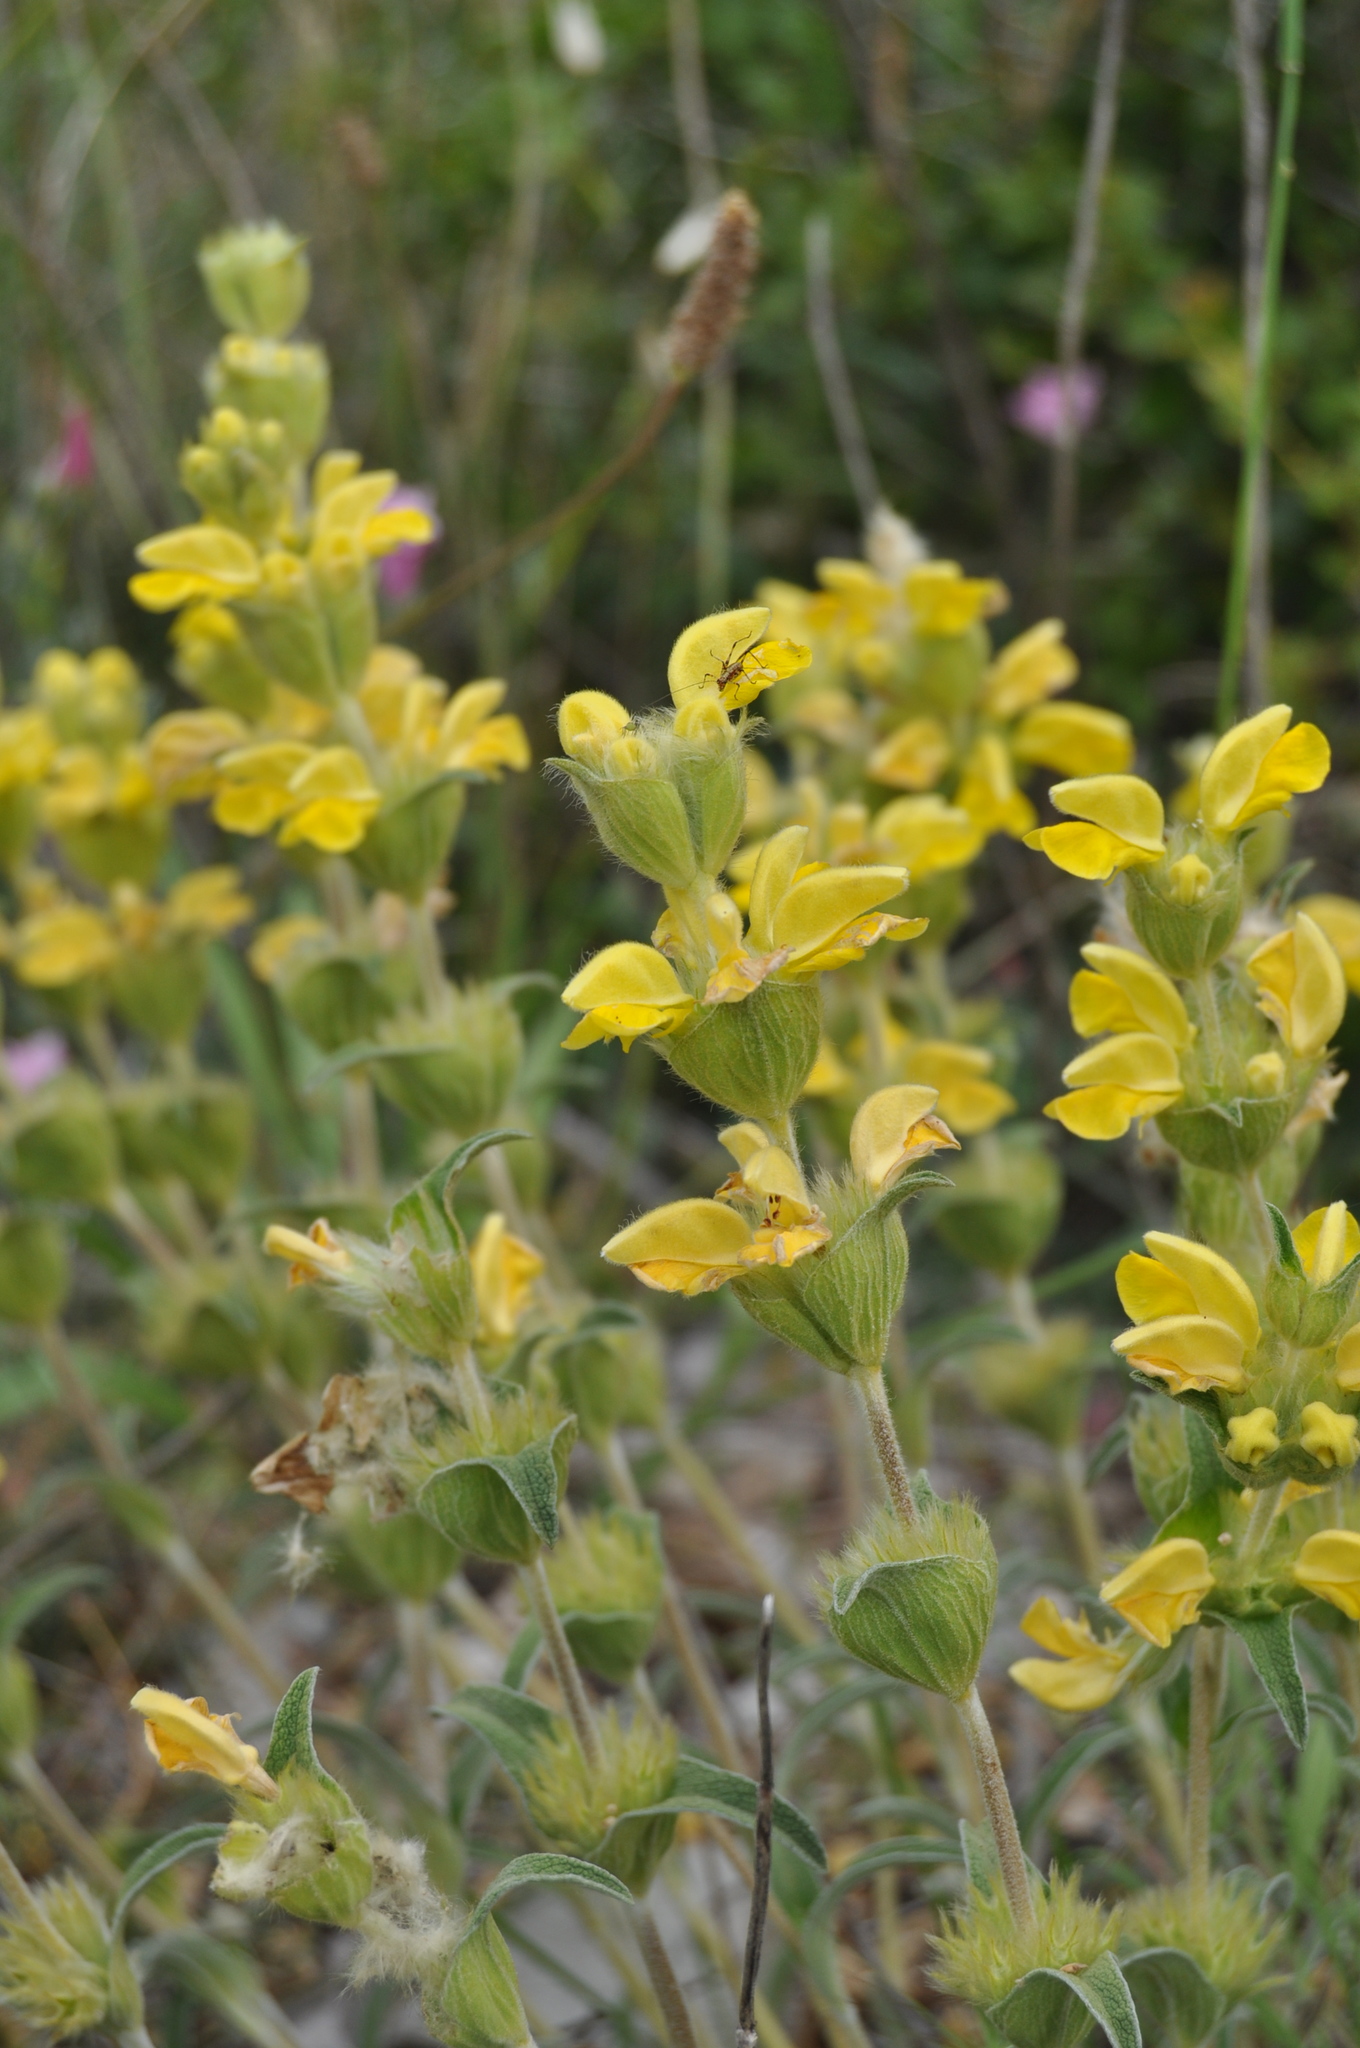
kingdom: Plantae
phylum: Tracheophyta
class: Magnoliopsida
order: Lamiales
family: Lamiaceae
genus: Phlomis
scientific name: Phlomis lychnitis
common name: Lampwickplant
